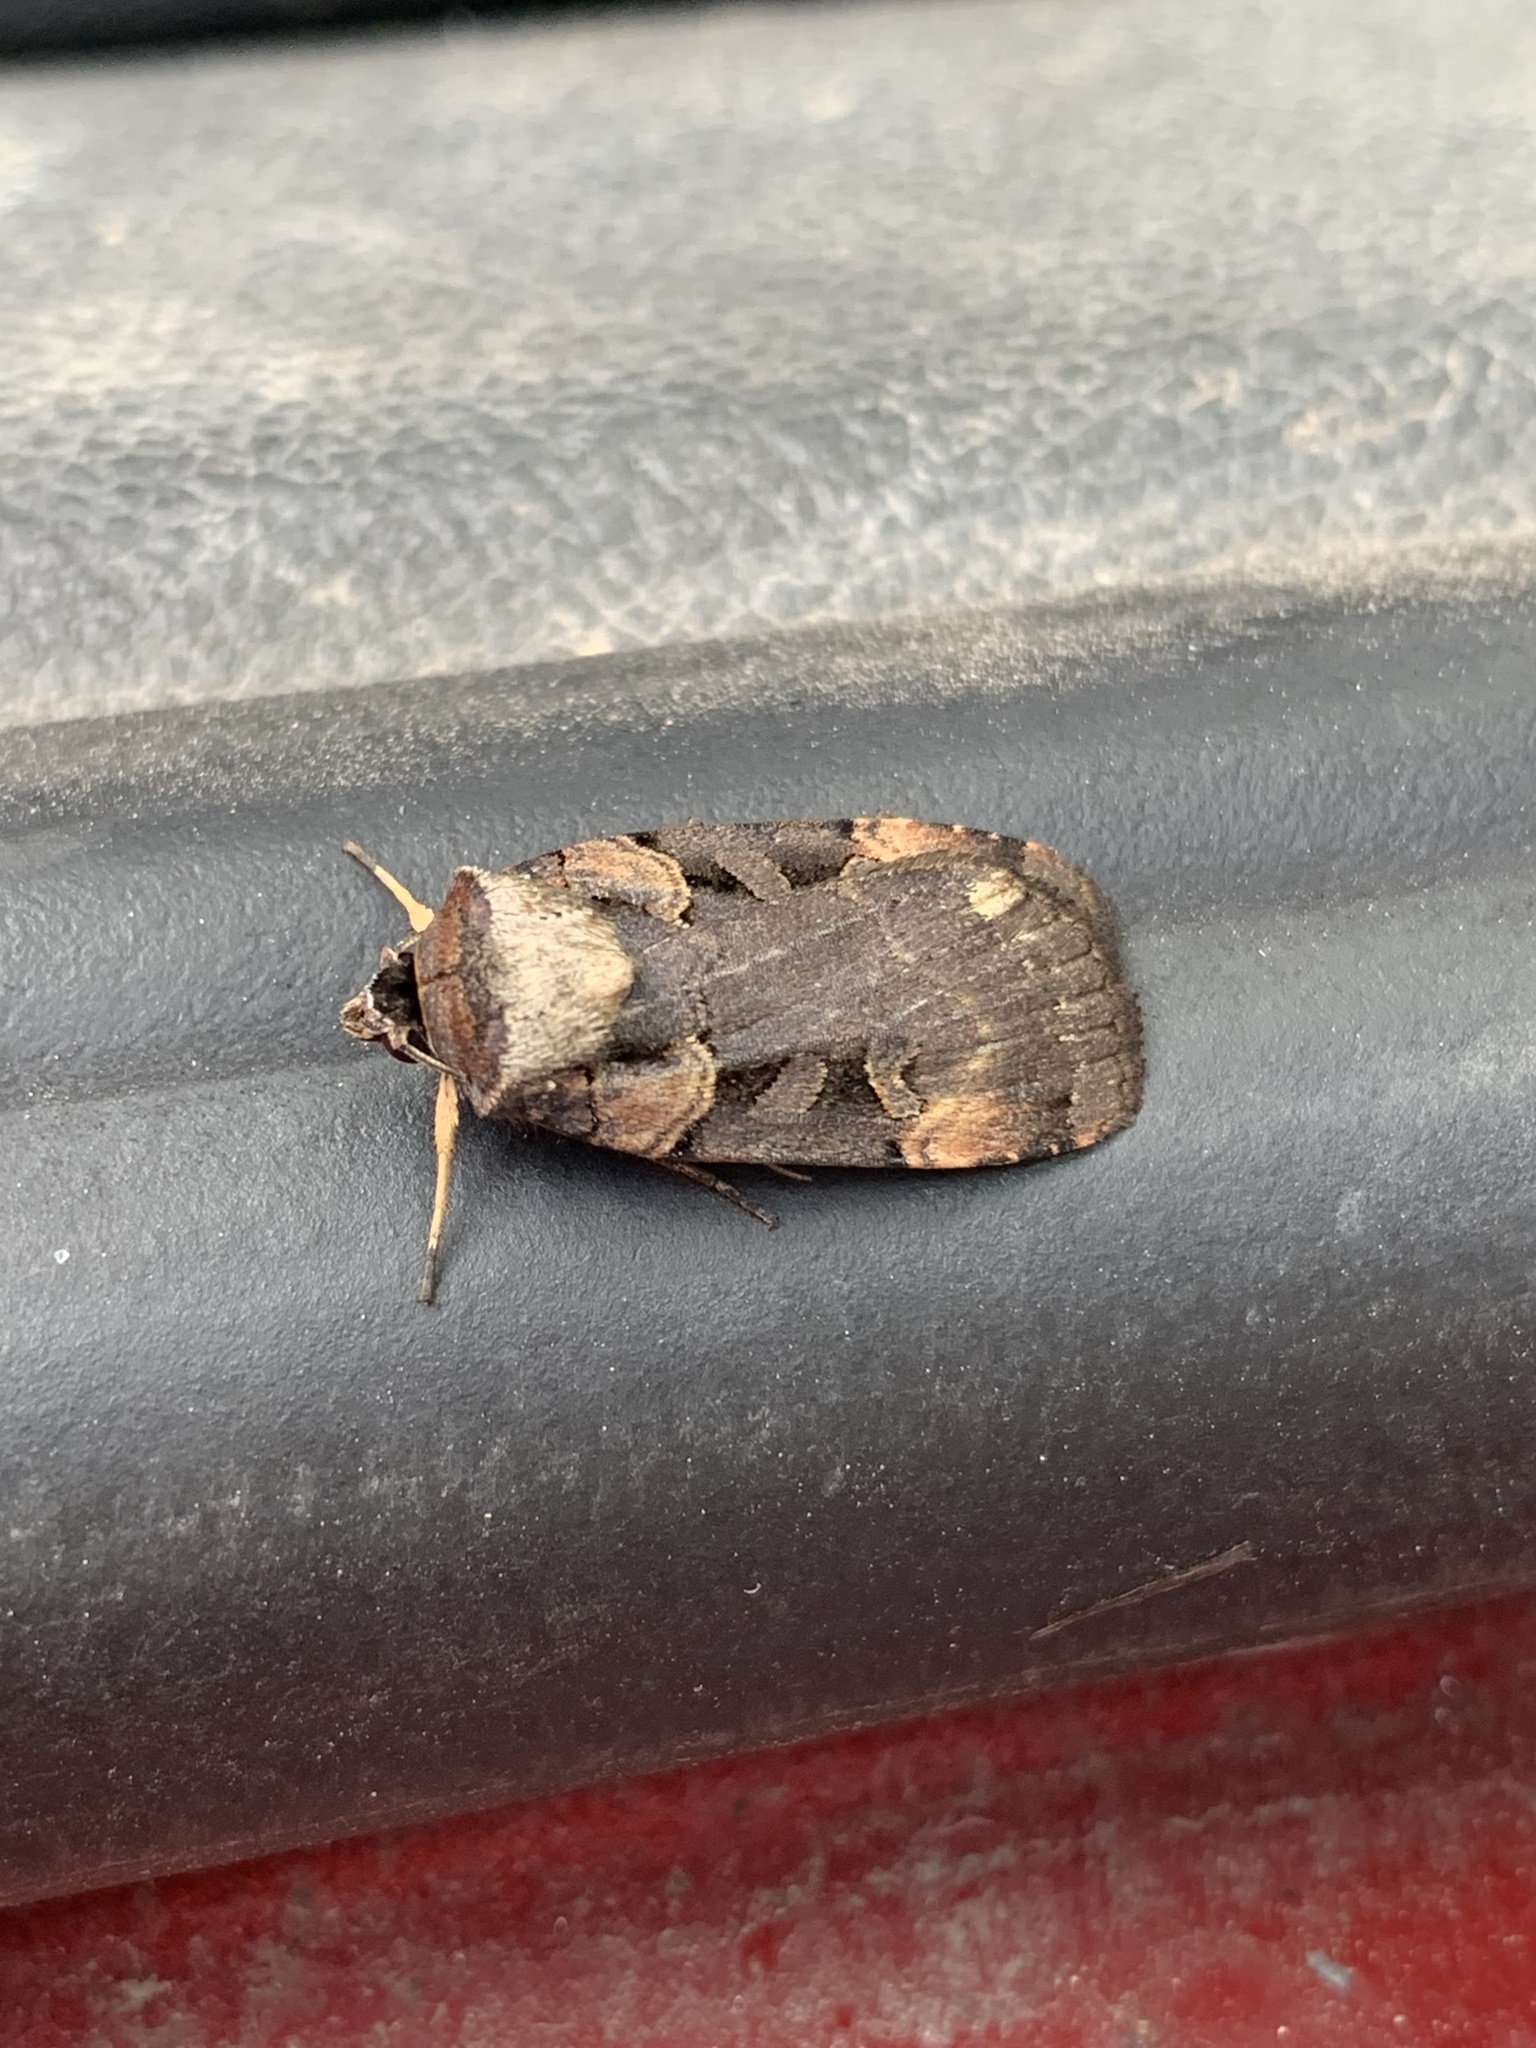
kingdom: Animalia
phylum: Arthropoda
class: Insecta
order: Lepidoptera
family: Noctuidae
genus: Pseudohermonassa
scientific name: Pseudohermonassa bicarnea
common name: Pink spotted dart
